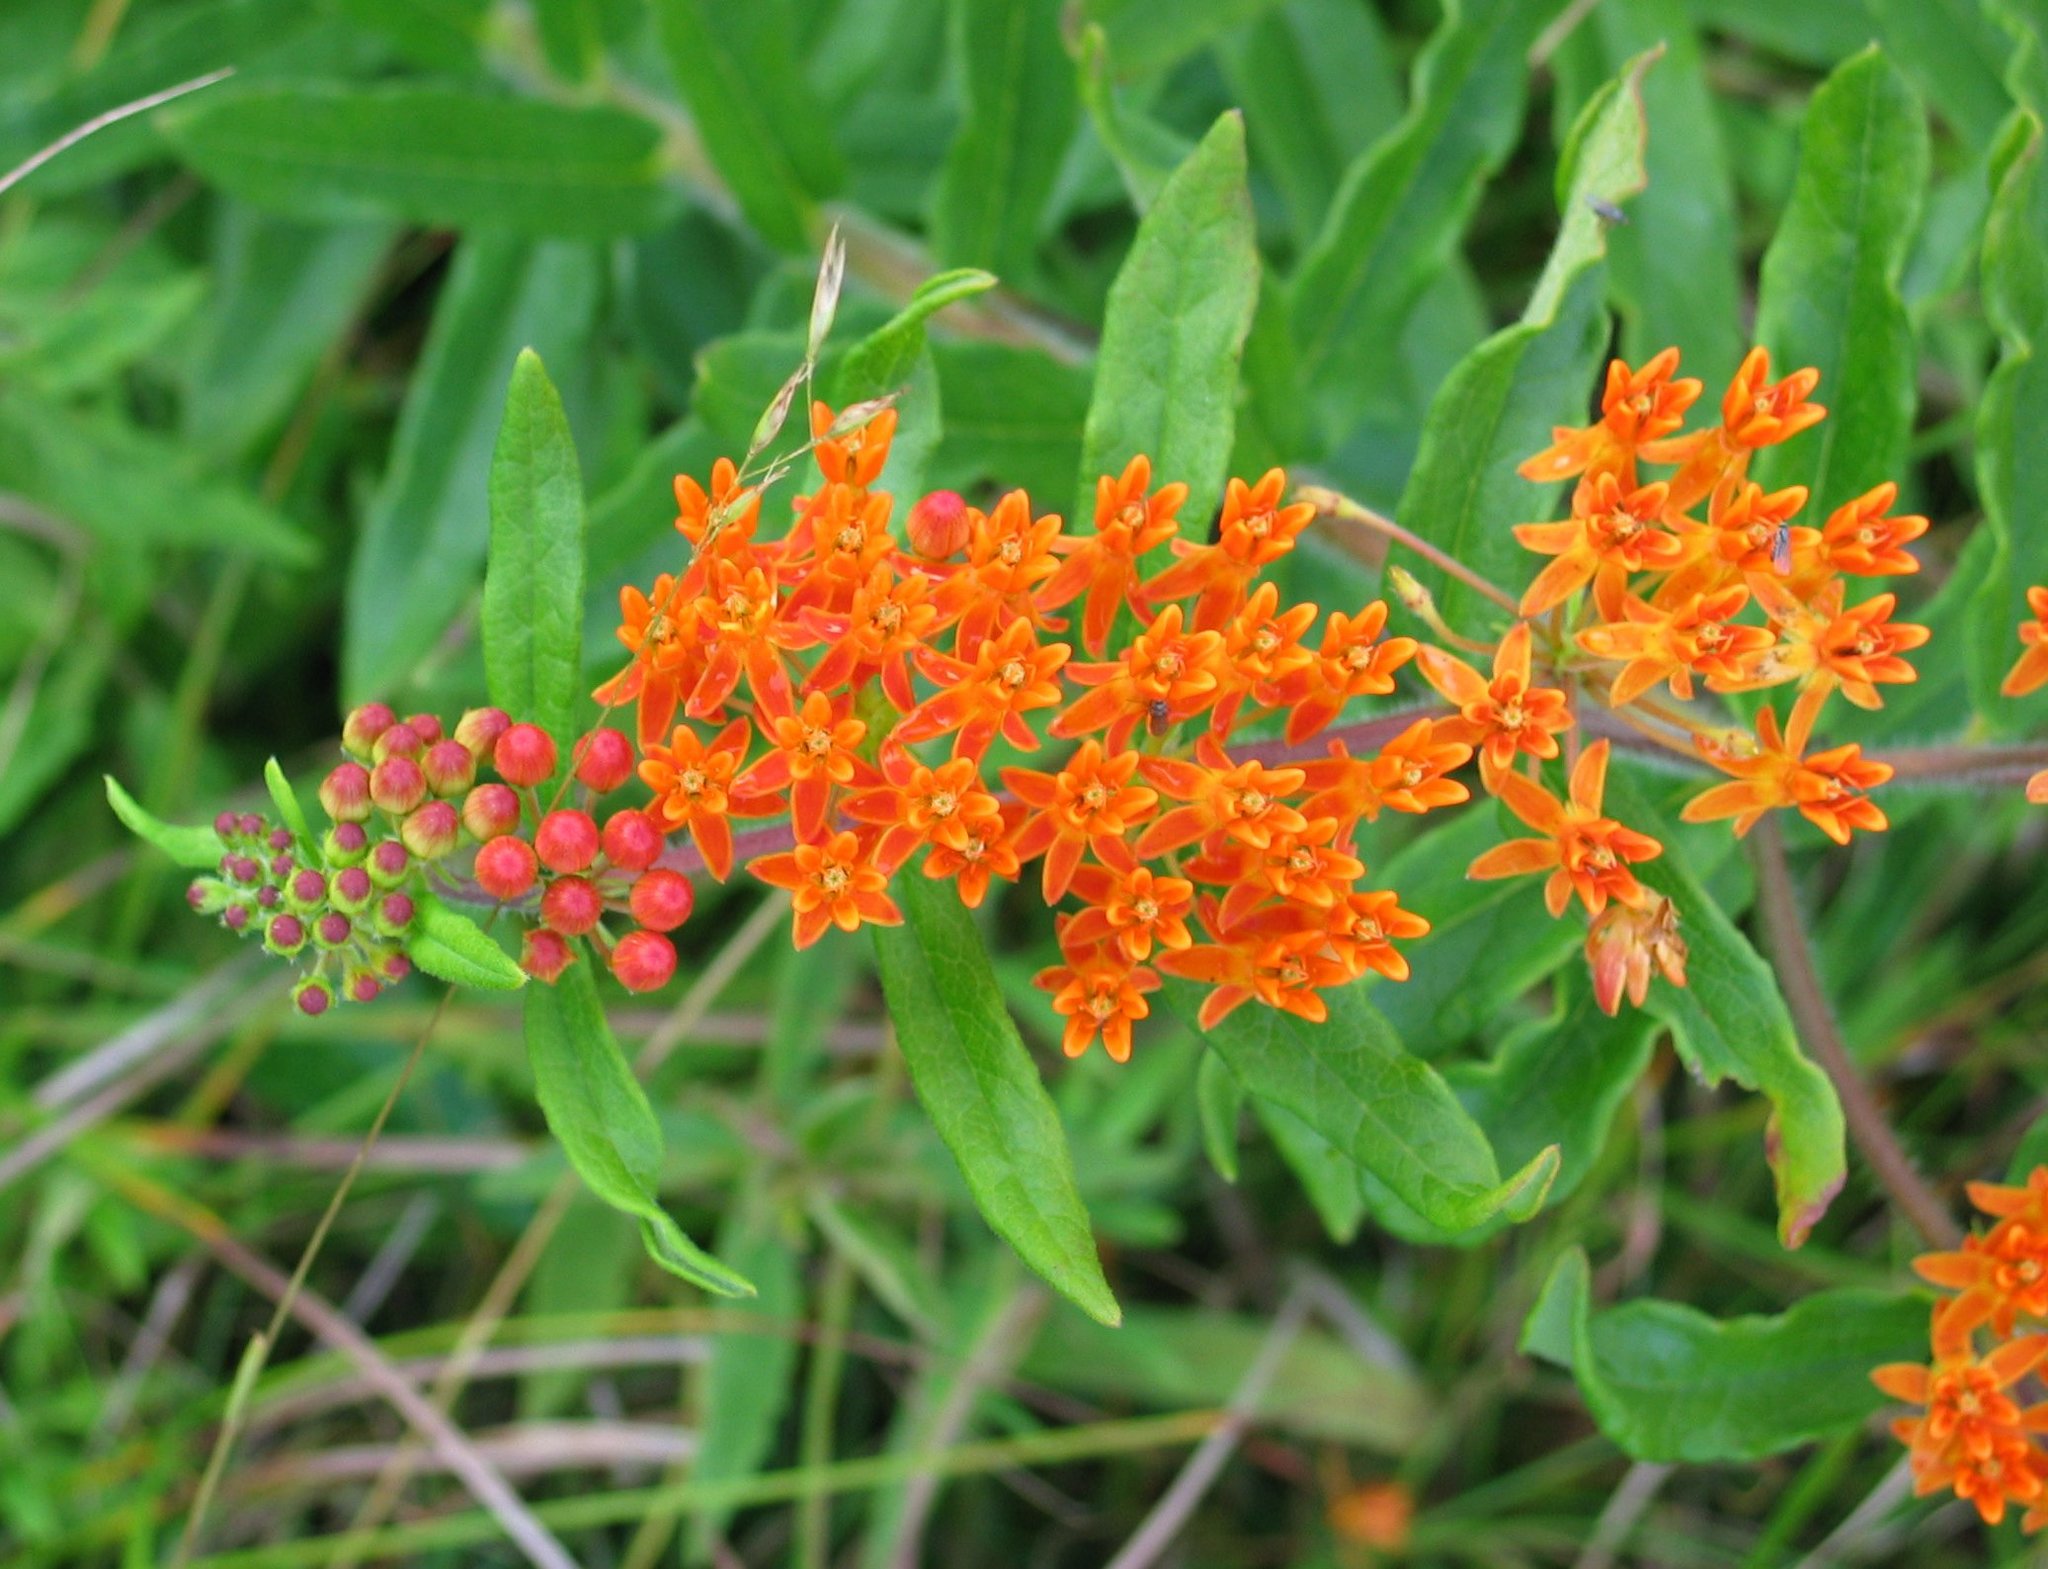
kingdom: Plantae
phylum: Tracheophyta
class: Magnoliopsida
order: Gentianales
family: Apocynaceae
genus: Asclepias
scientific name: Asclepias tuberosa
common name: Butterfly milkweed
